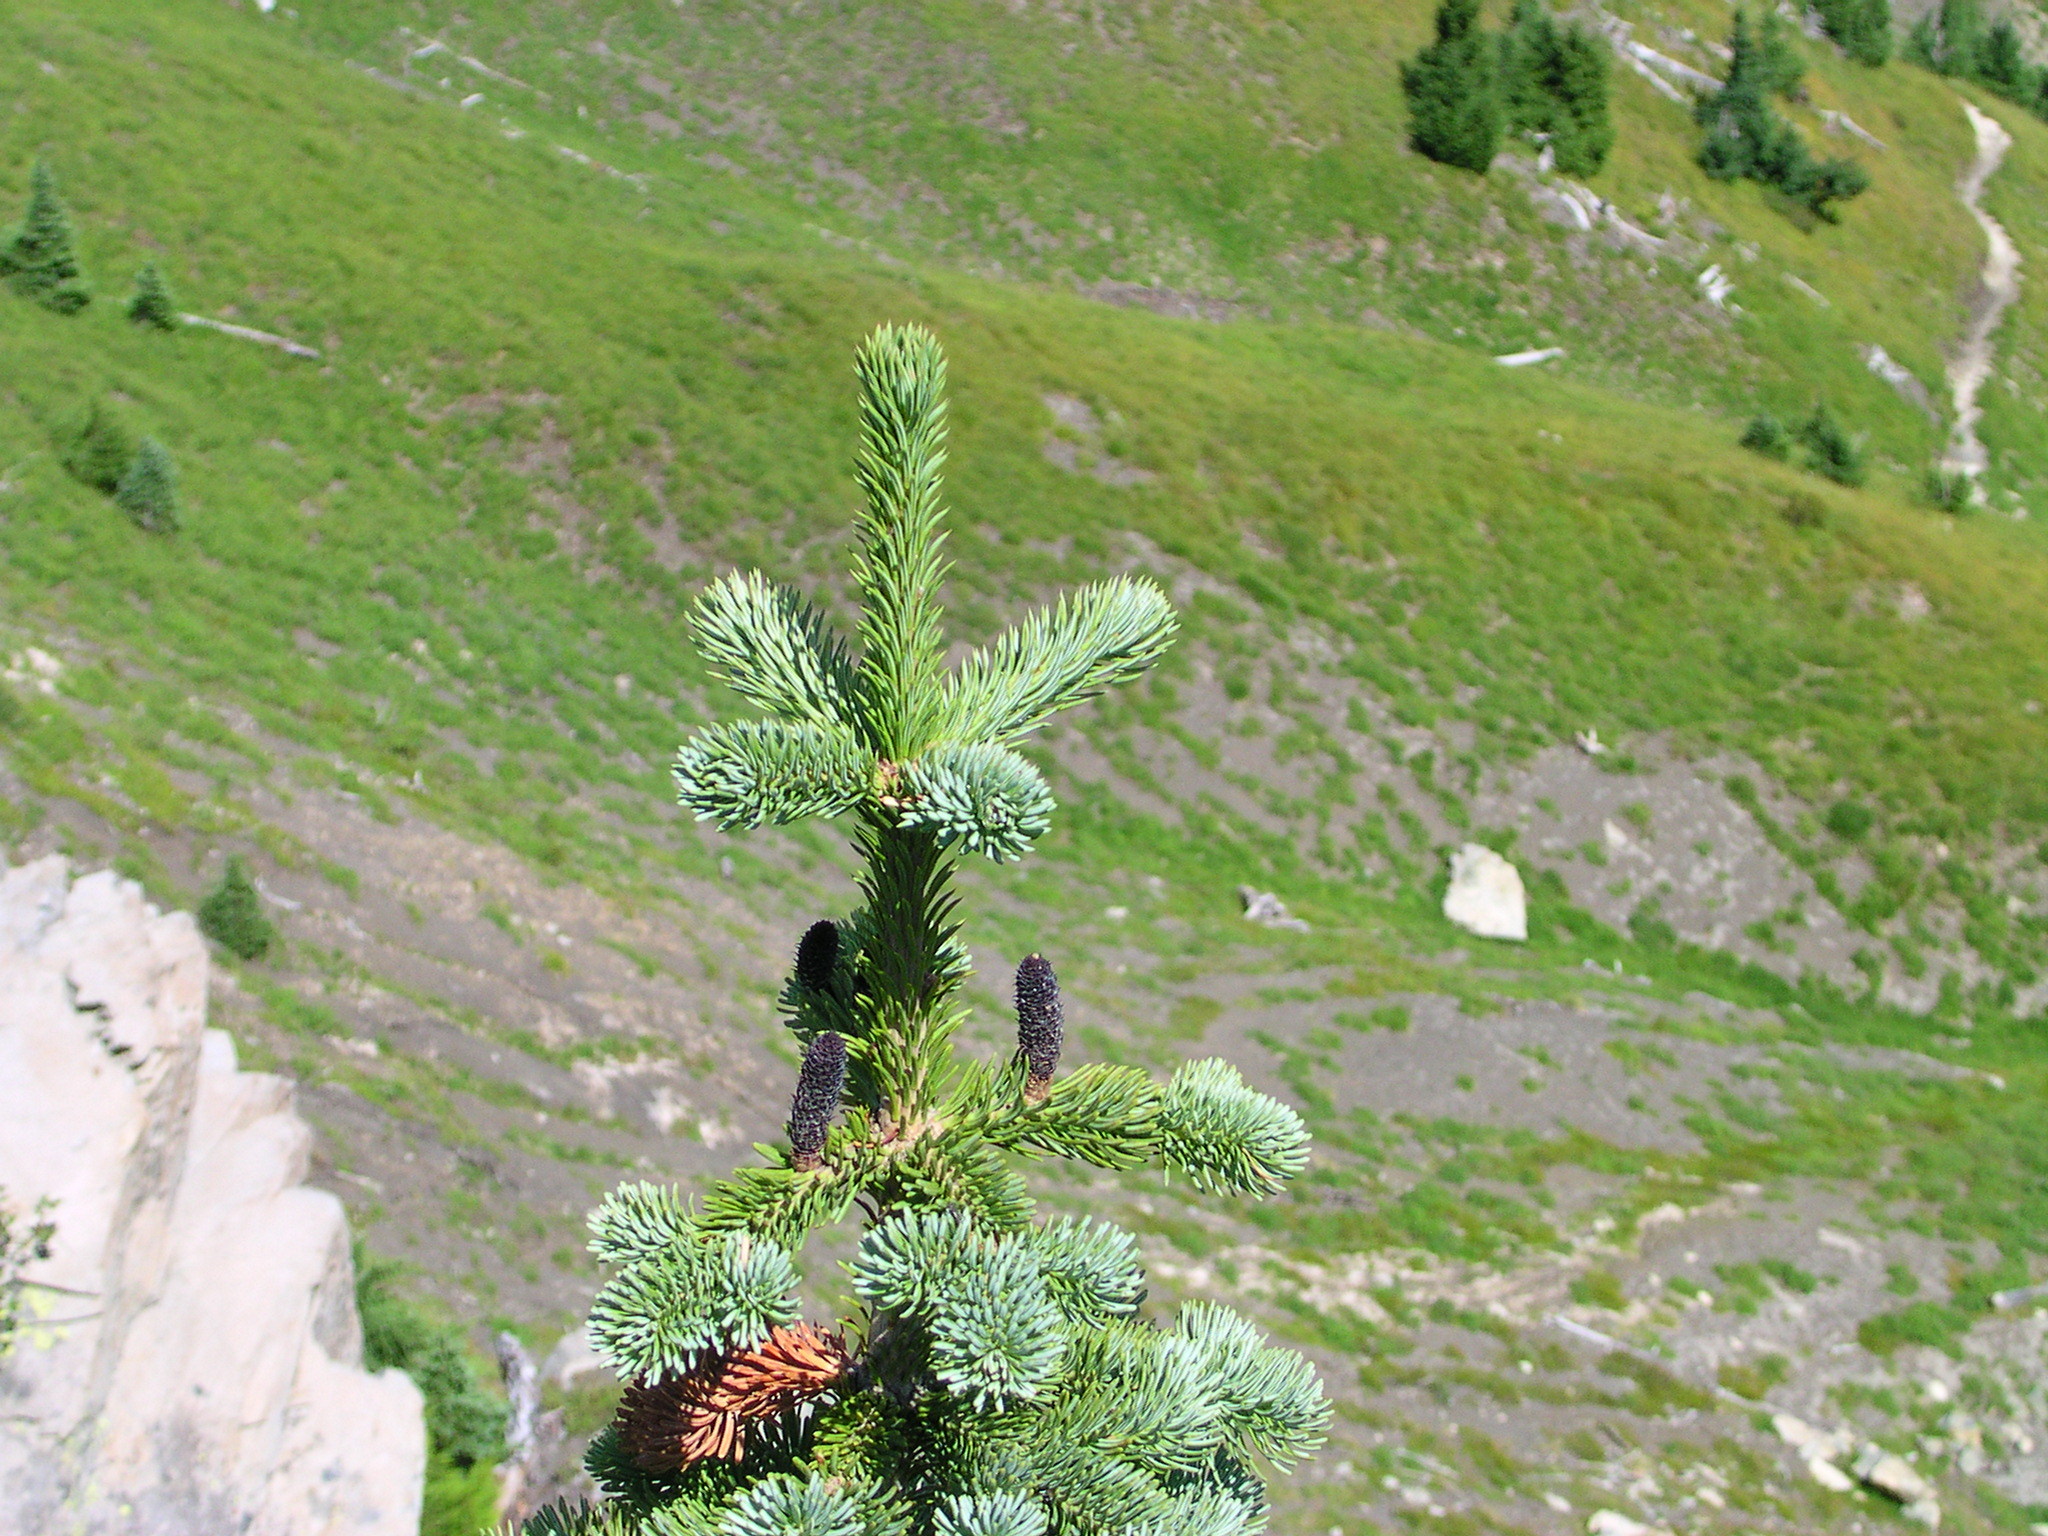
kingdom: Plantae
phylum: Tracheophyta
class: Pinopsida
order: Pinales
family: Pinaceae
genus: Abies
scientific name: Abies lasiocarpa
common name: Subalpine fir
